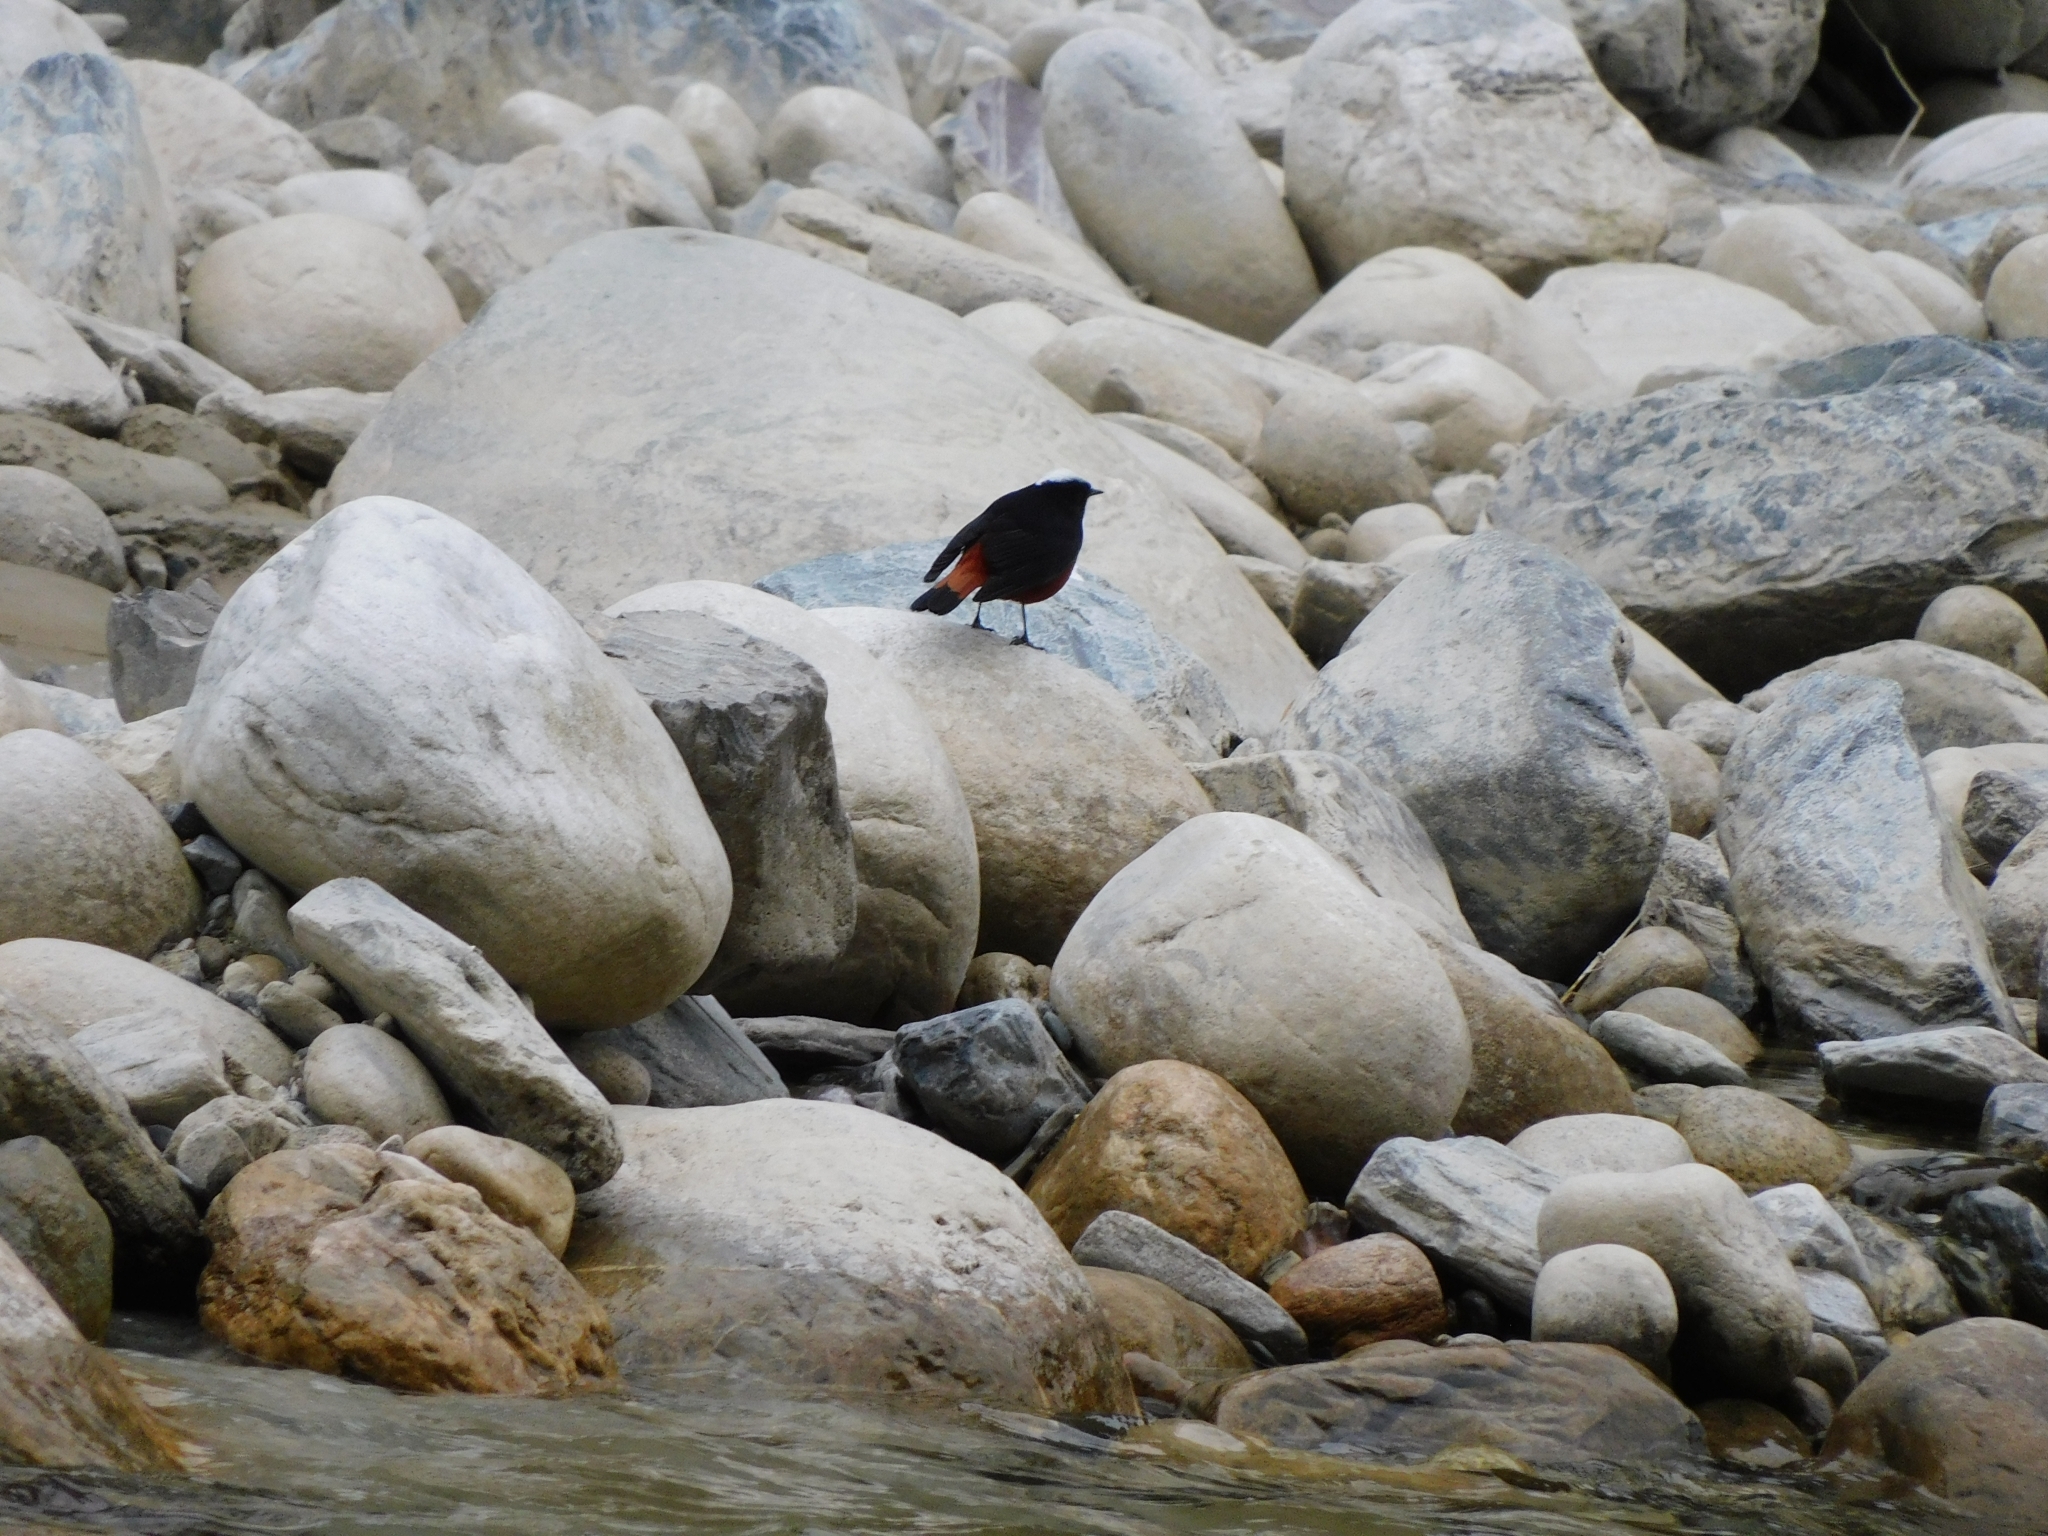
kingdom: Animalia
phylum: Chordata
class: Aves
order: Passeriformes
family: Muscicapidae
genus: Chaimarrornis
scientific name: Chaimarrornis leucocephalus
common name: White-capped redstart
